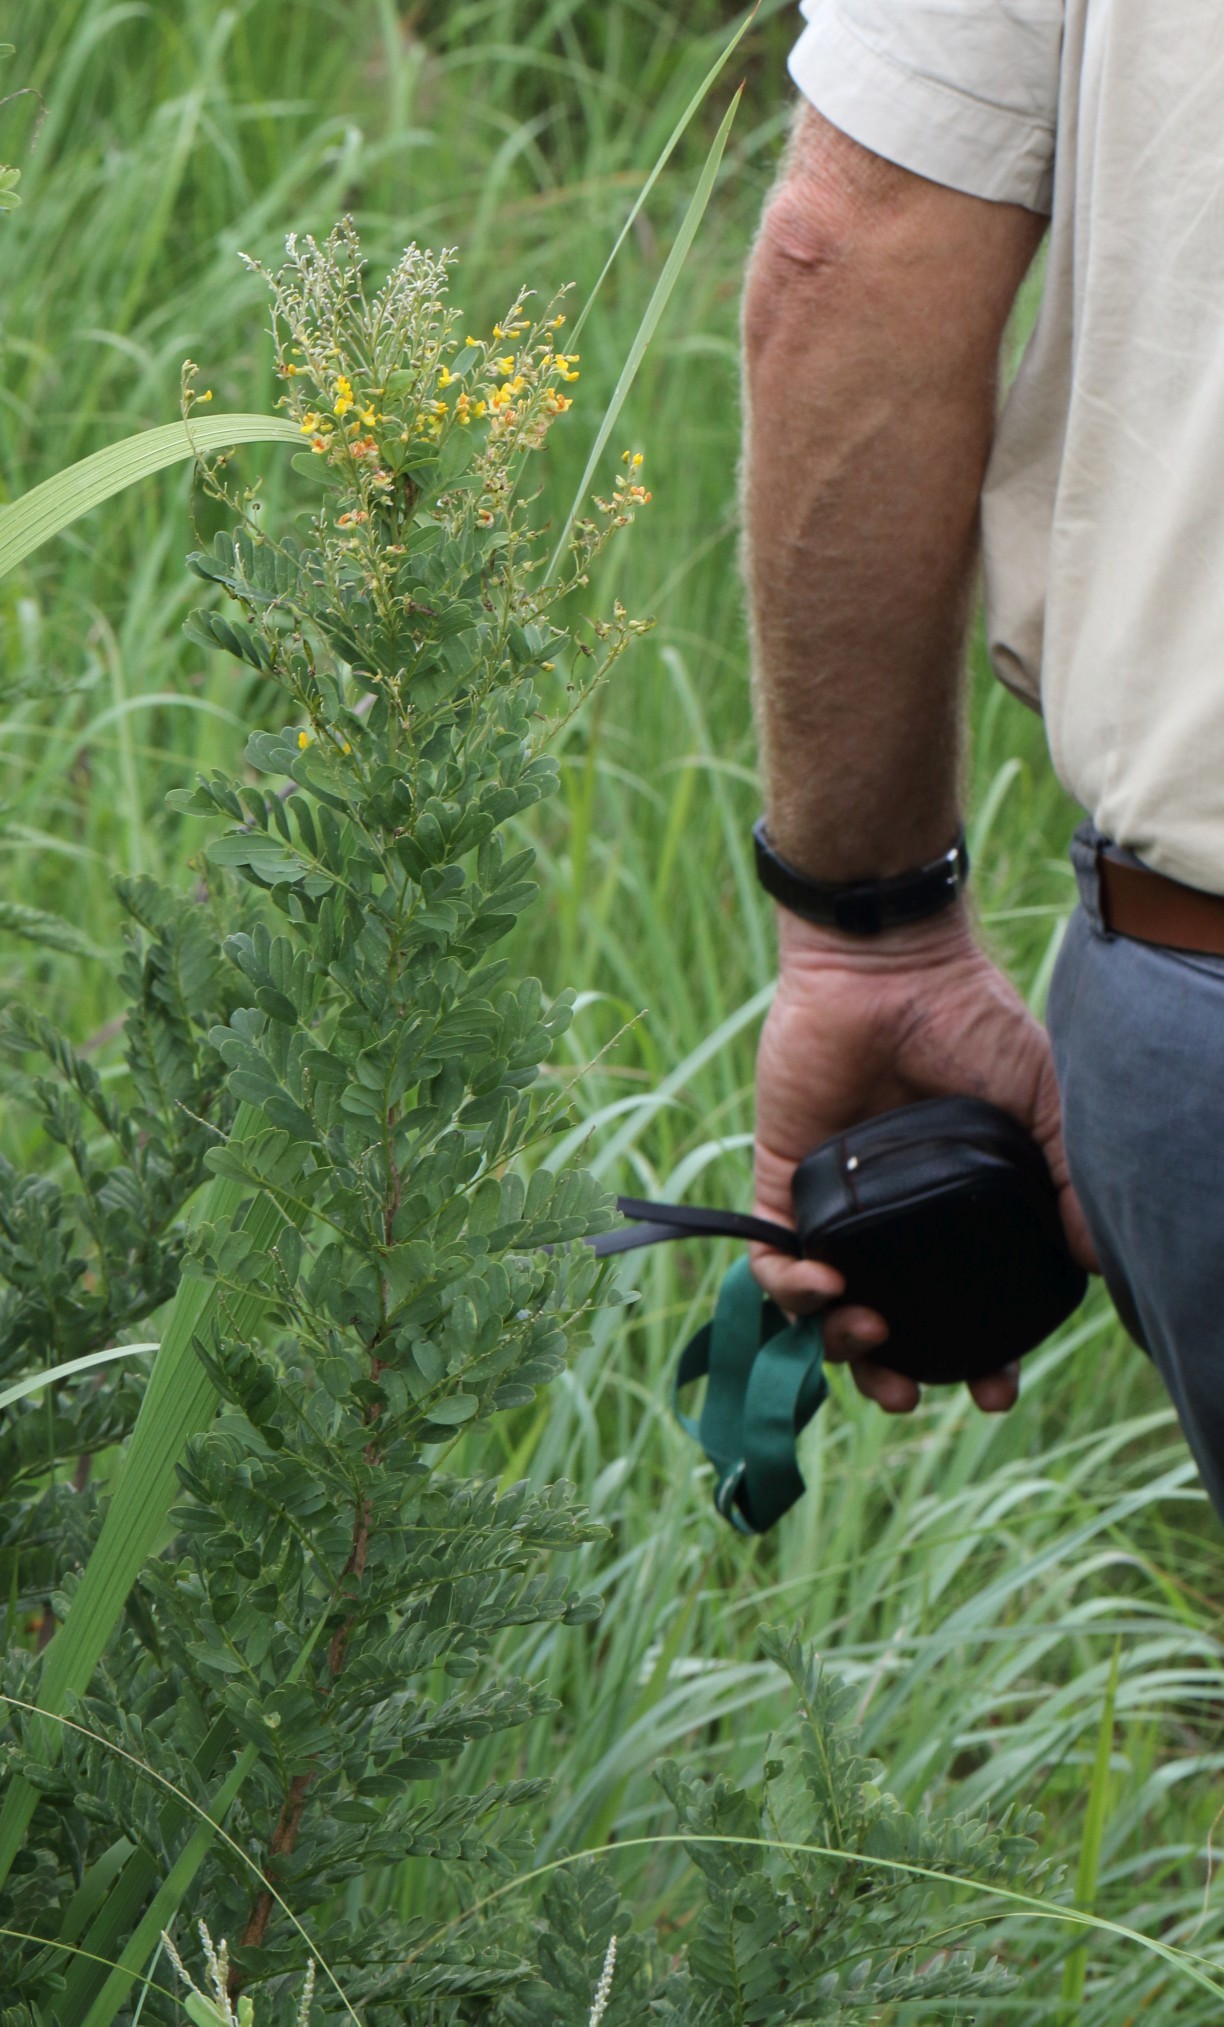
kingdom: Plantae
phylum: Tracheophyta
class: Magnoliopsida
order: Fabales
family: Fabaceae
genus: Calpurnia
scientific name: Calpurnia sericea
